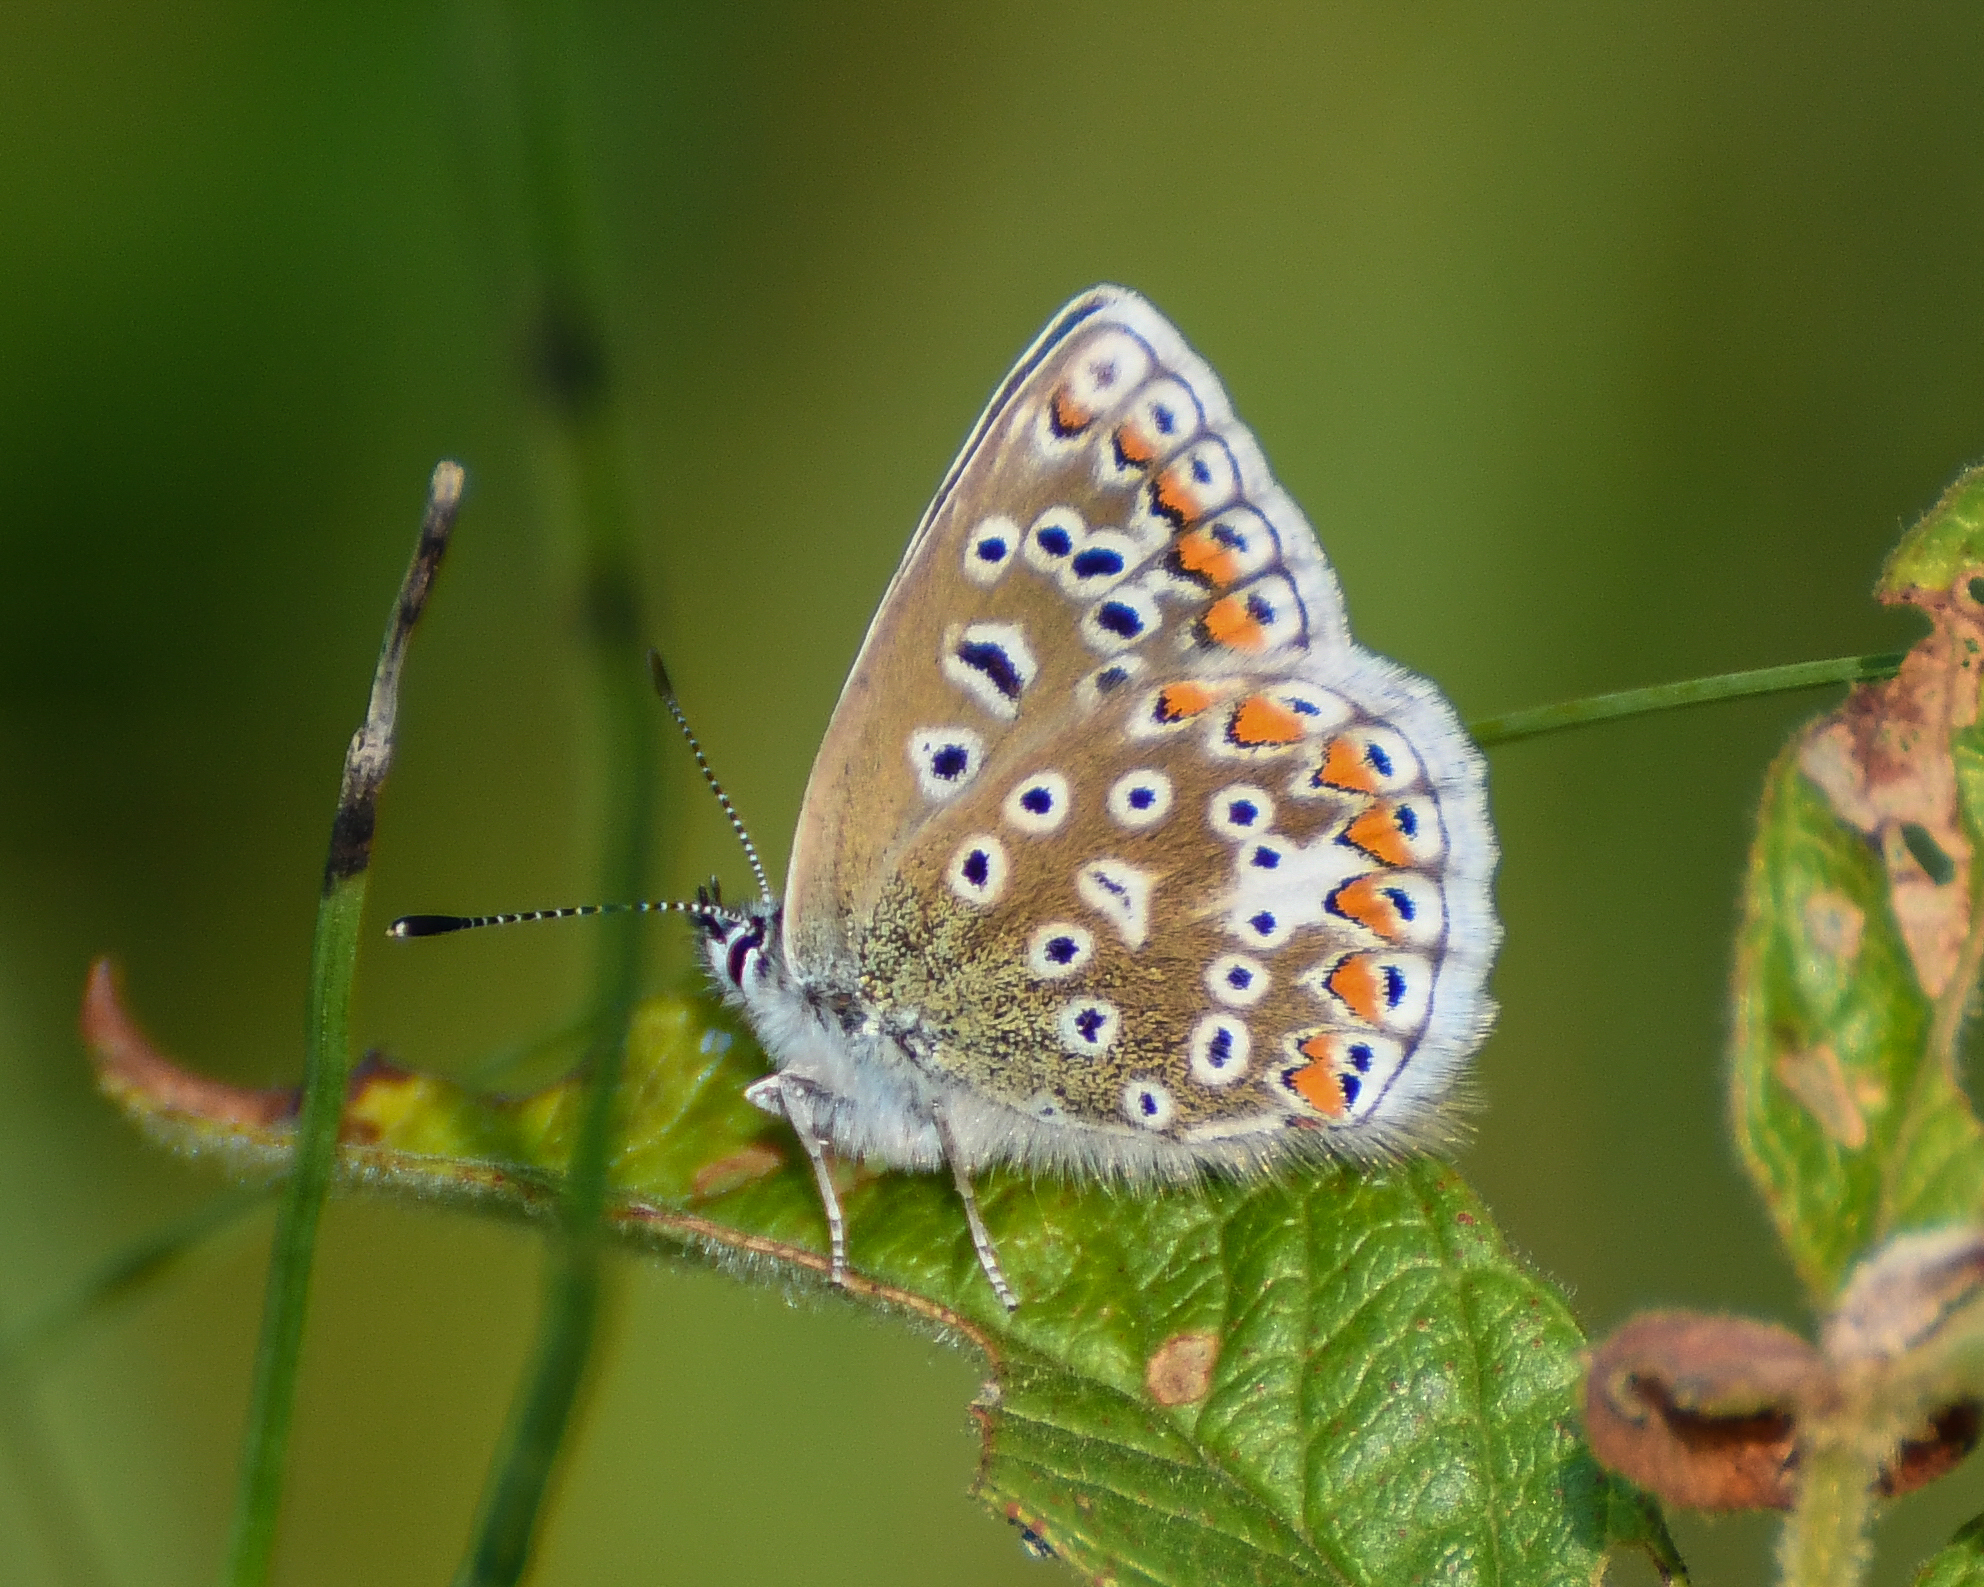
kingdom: Animalia
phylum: Arthropoda
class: Insecta
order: Lepidoptera
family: Lycaenidae
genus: Polyommatus
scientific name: Polyommatus icarus
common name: Common blue
